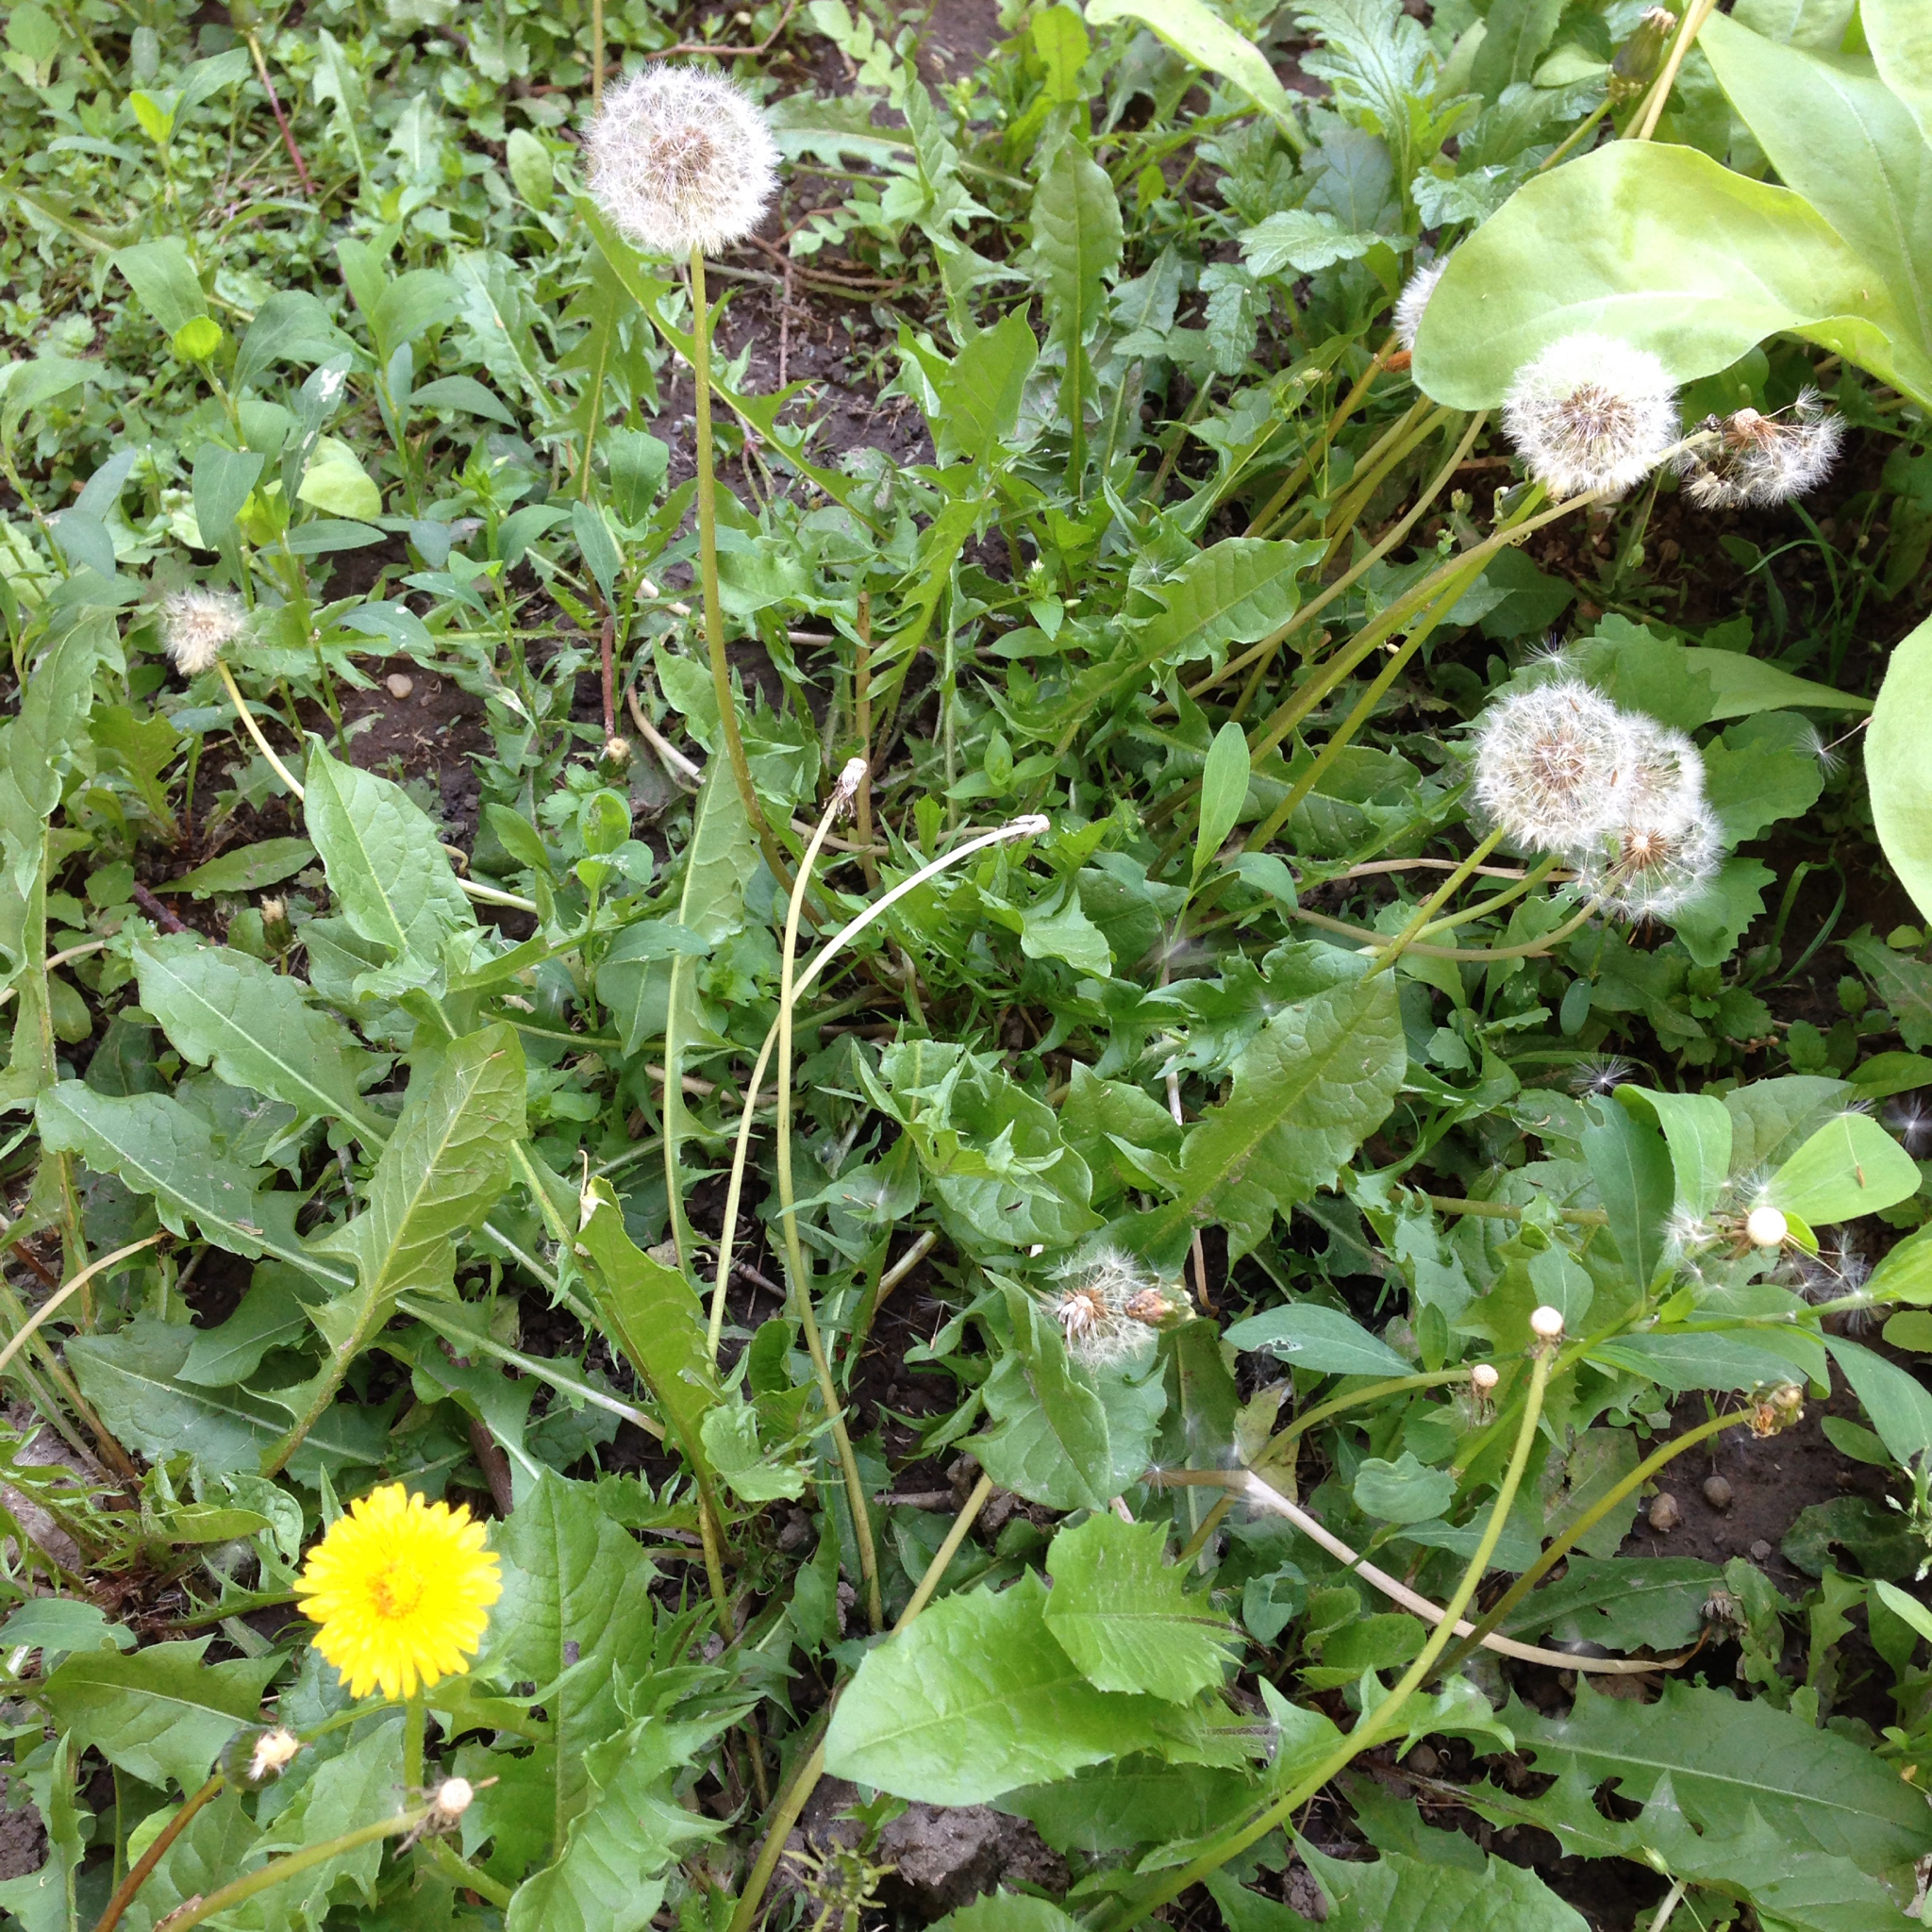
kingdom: Plantae
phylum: Tracheophyta
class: Magnoliopsida
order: Asterales
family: Asteraceae
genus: Taraxacum
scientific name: Taraxacum officinale
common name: Common dandelion
